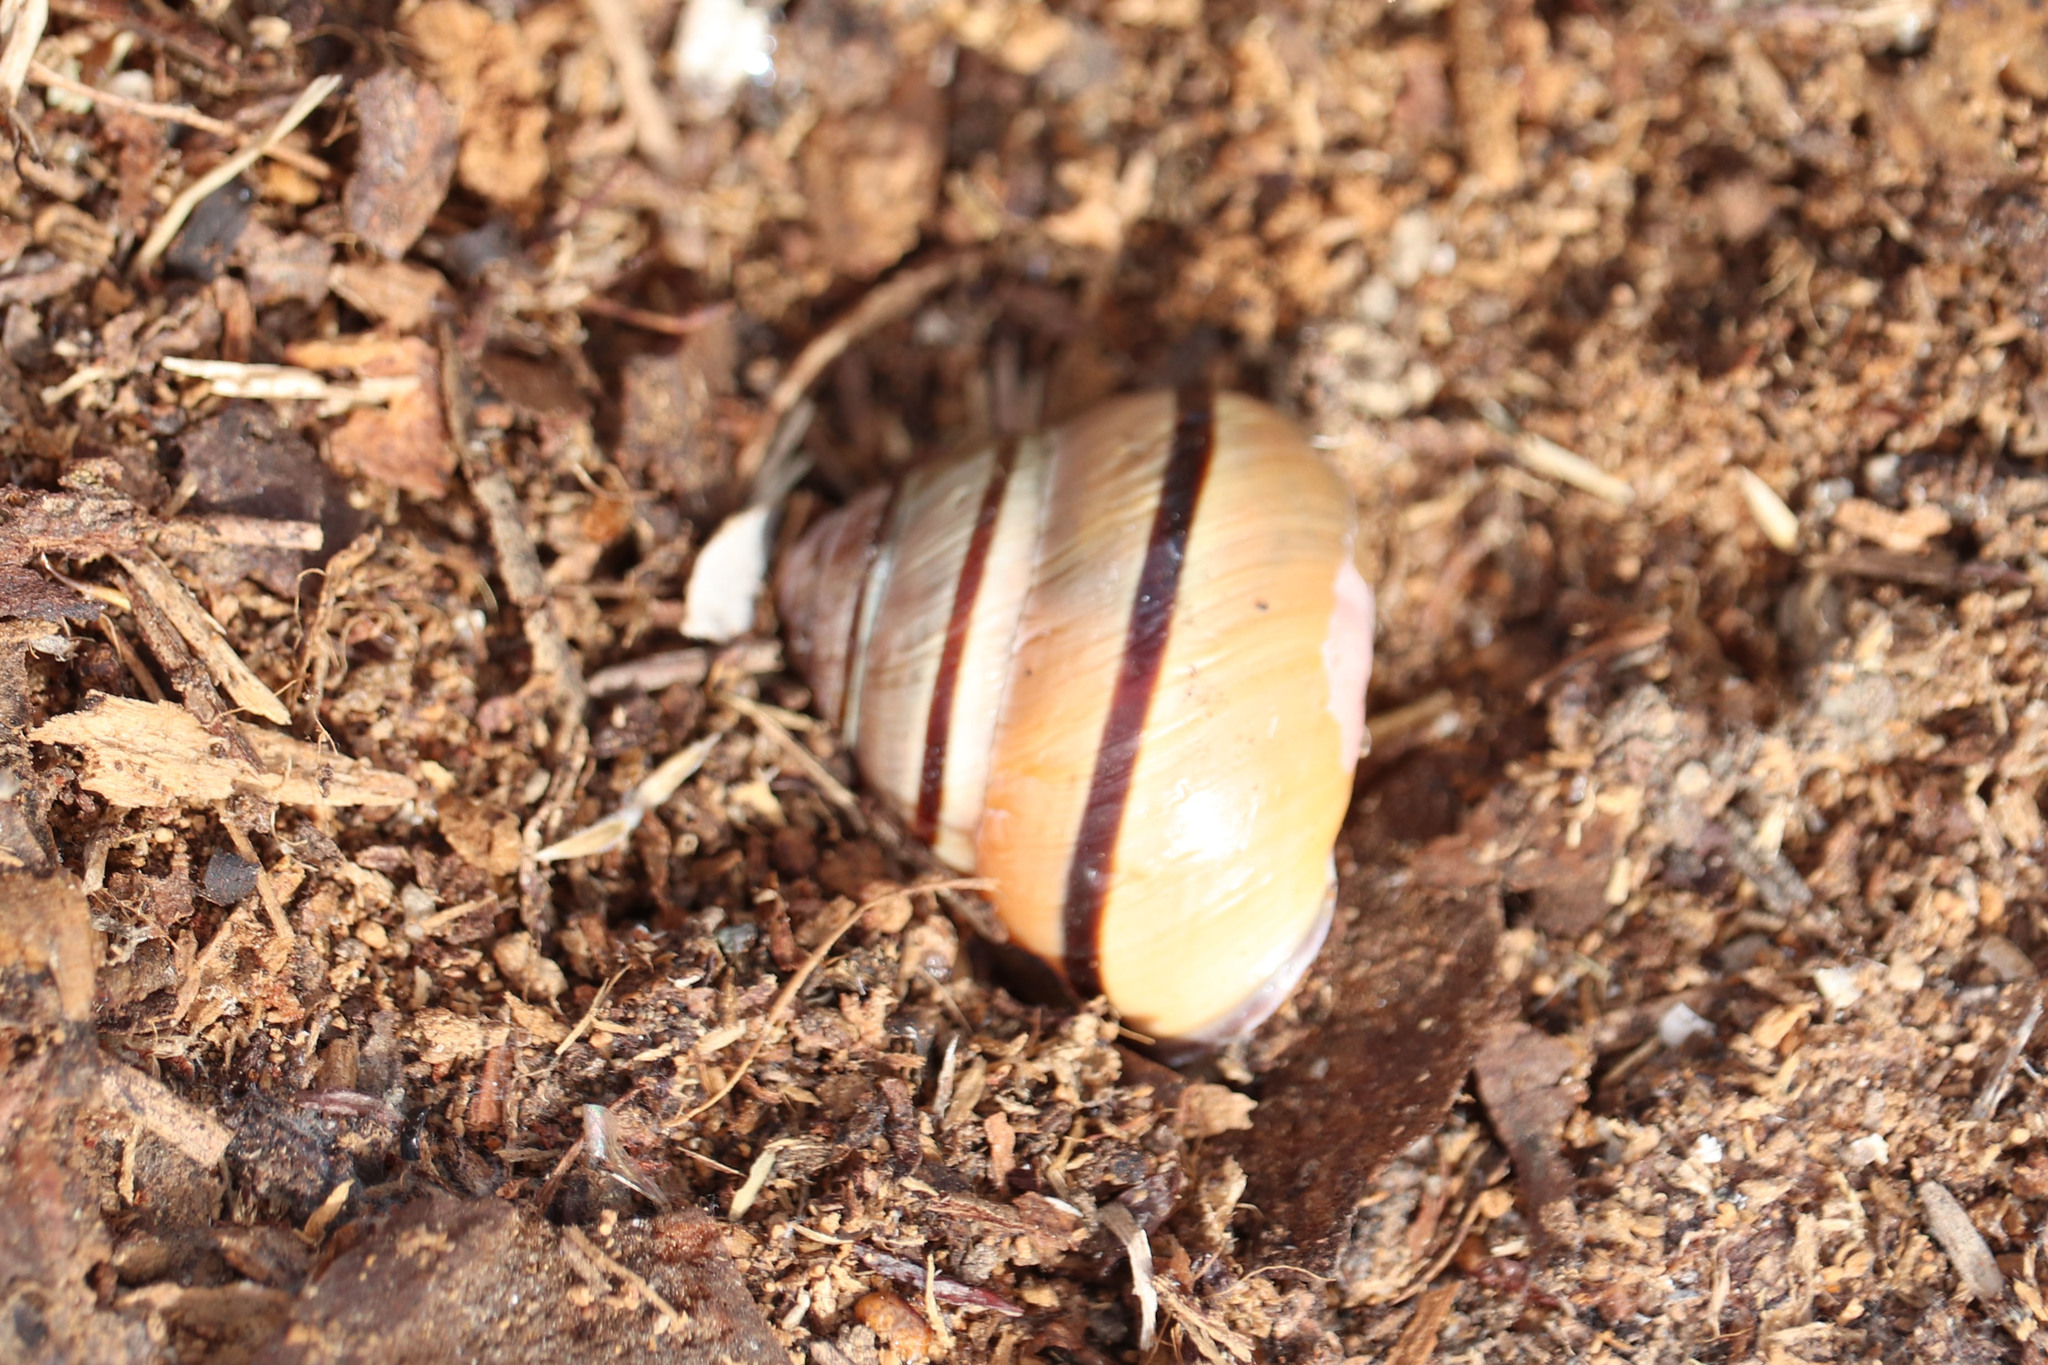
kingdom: Animalia
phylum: Mollusca
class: Gastropoda
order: Stylommatophora
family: Helicidae
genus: Cepaea
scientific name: Cepaea nemoralis
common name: Grovesnail
